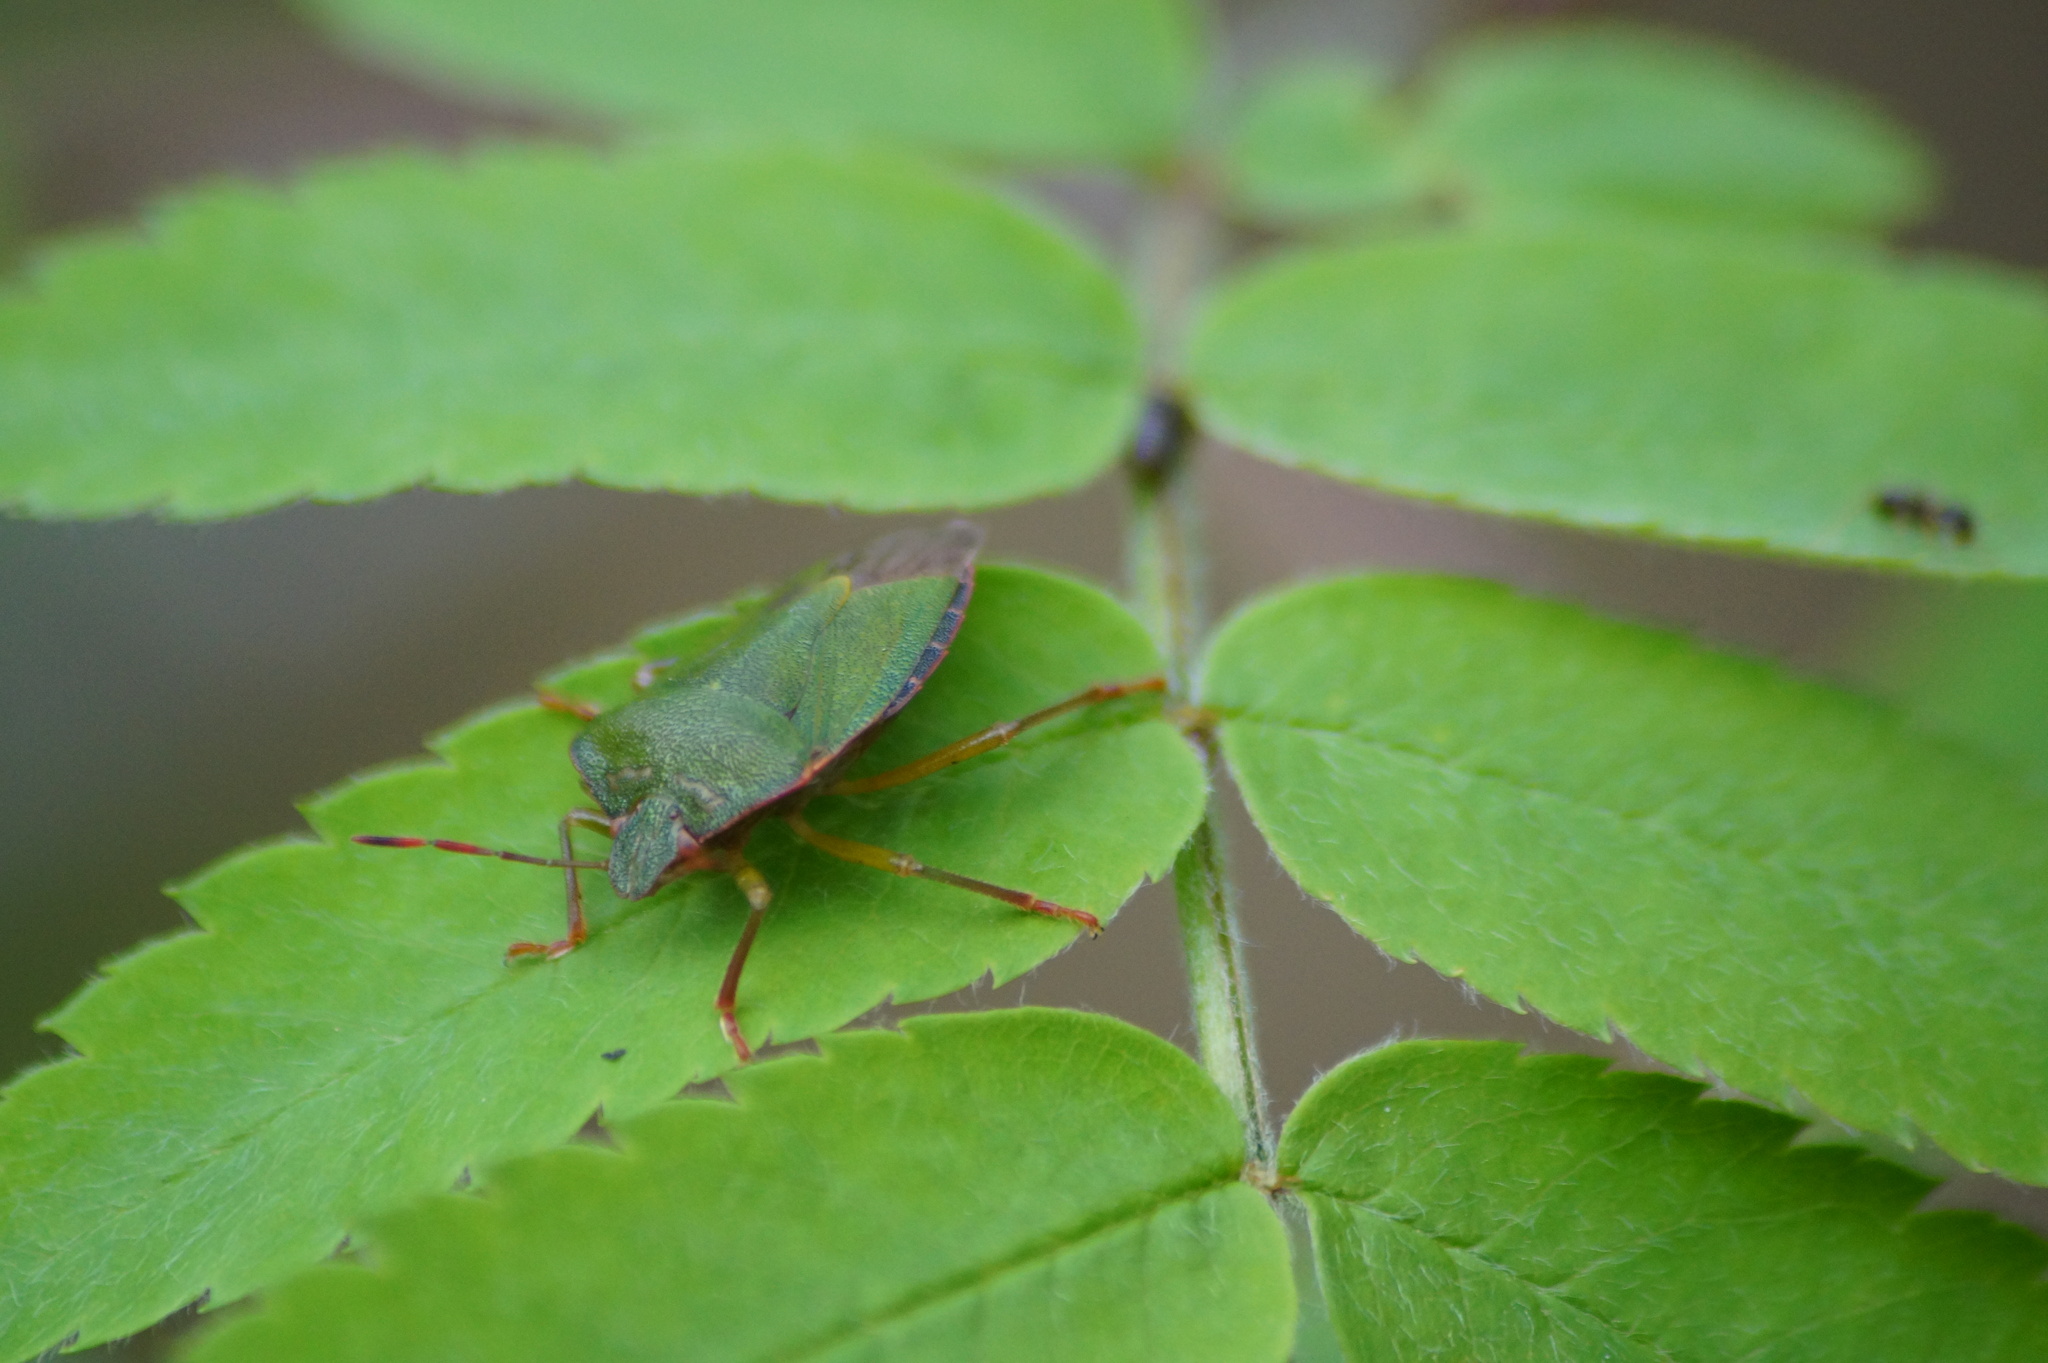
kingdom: Animalia
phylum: Arthropoda
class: Insecta
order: Hemiptera
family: Pentatomidae
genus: Palomena
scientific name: Palomena prasina
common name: Green shieldbug
